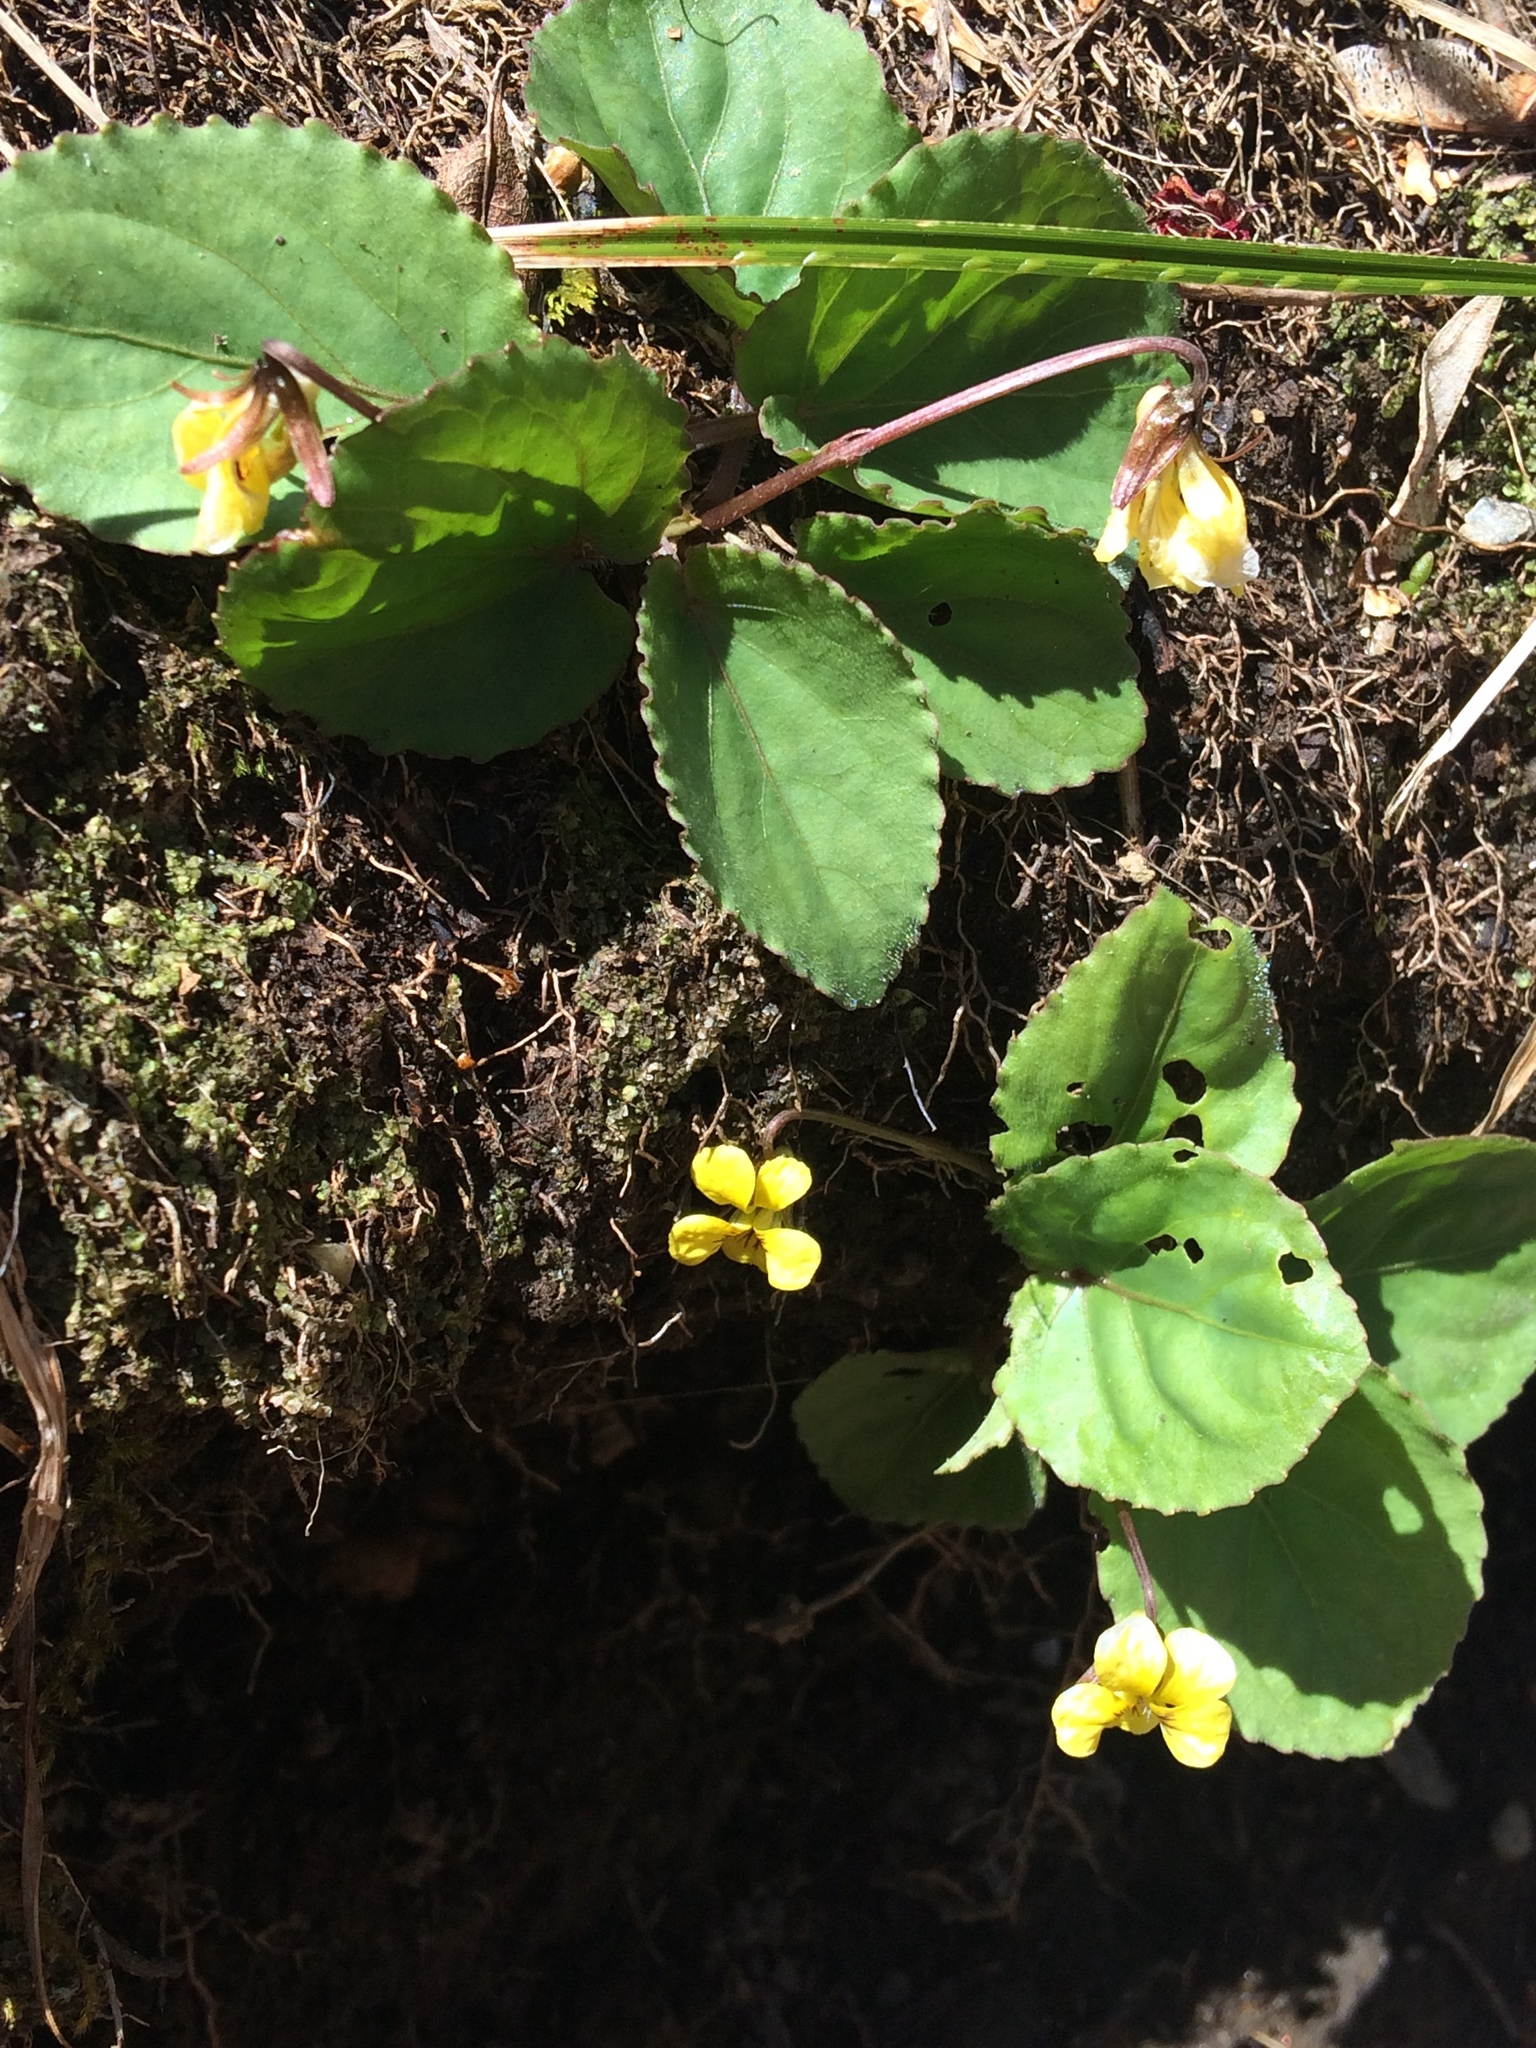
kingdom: Plantae
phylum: Tracheophyta
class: Magnoliopsida
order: Malpighiales
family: Violaceae
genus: Viola
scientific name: Viola rotundifolia
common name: Early yellow violet
